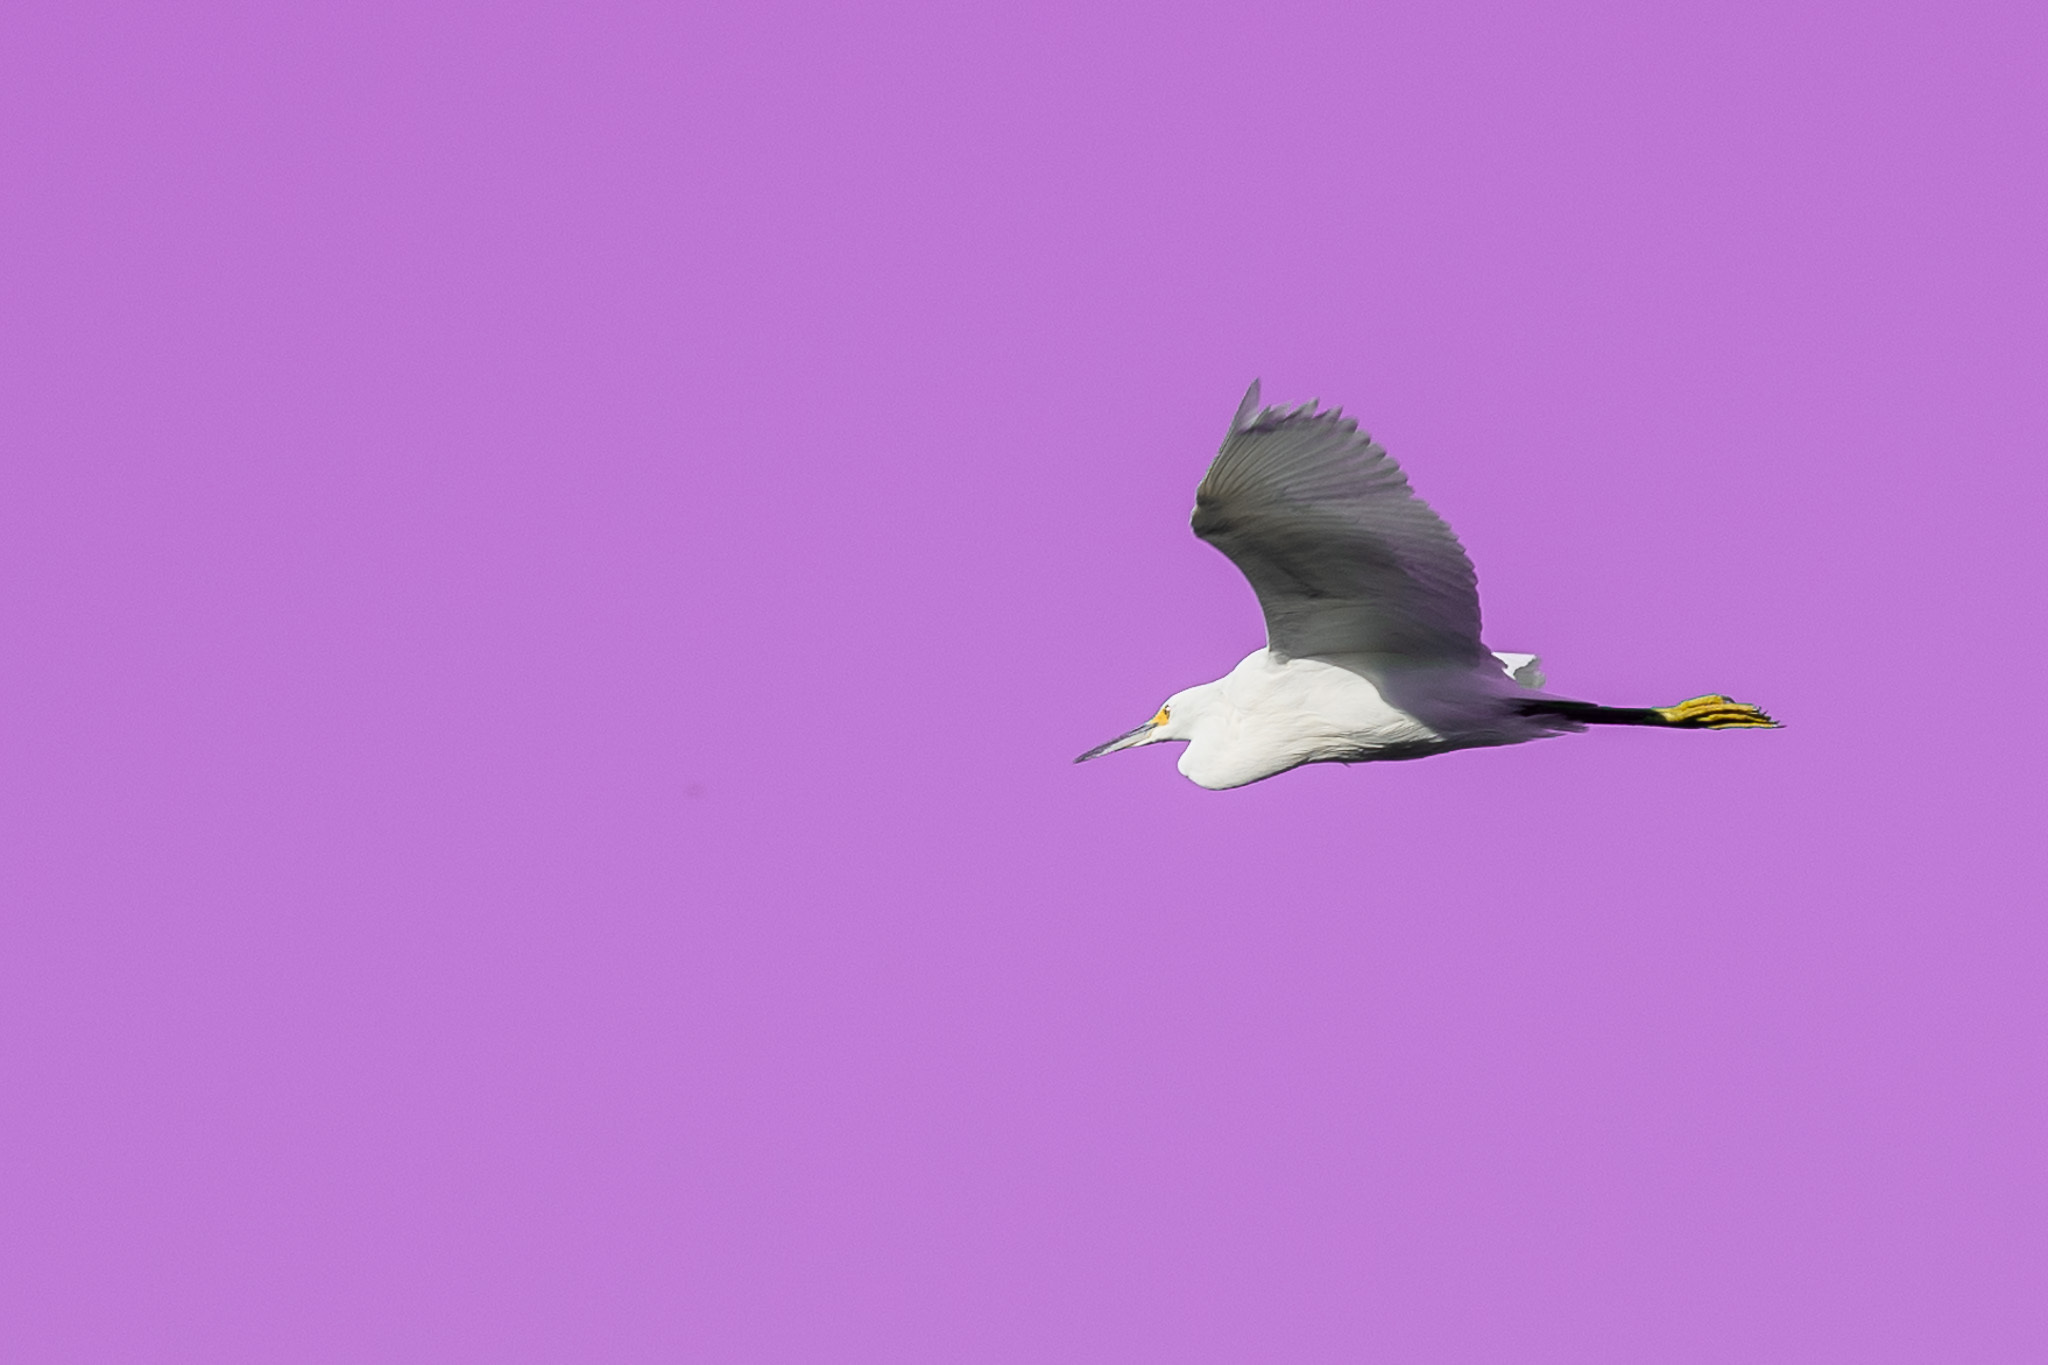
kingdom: Animalia
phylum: Chordata
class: Aves
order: Pelecaniformes
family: Ardeidae
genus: Egretta
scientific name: Egretta thula
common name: Snowy egret
